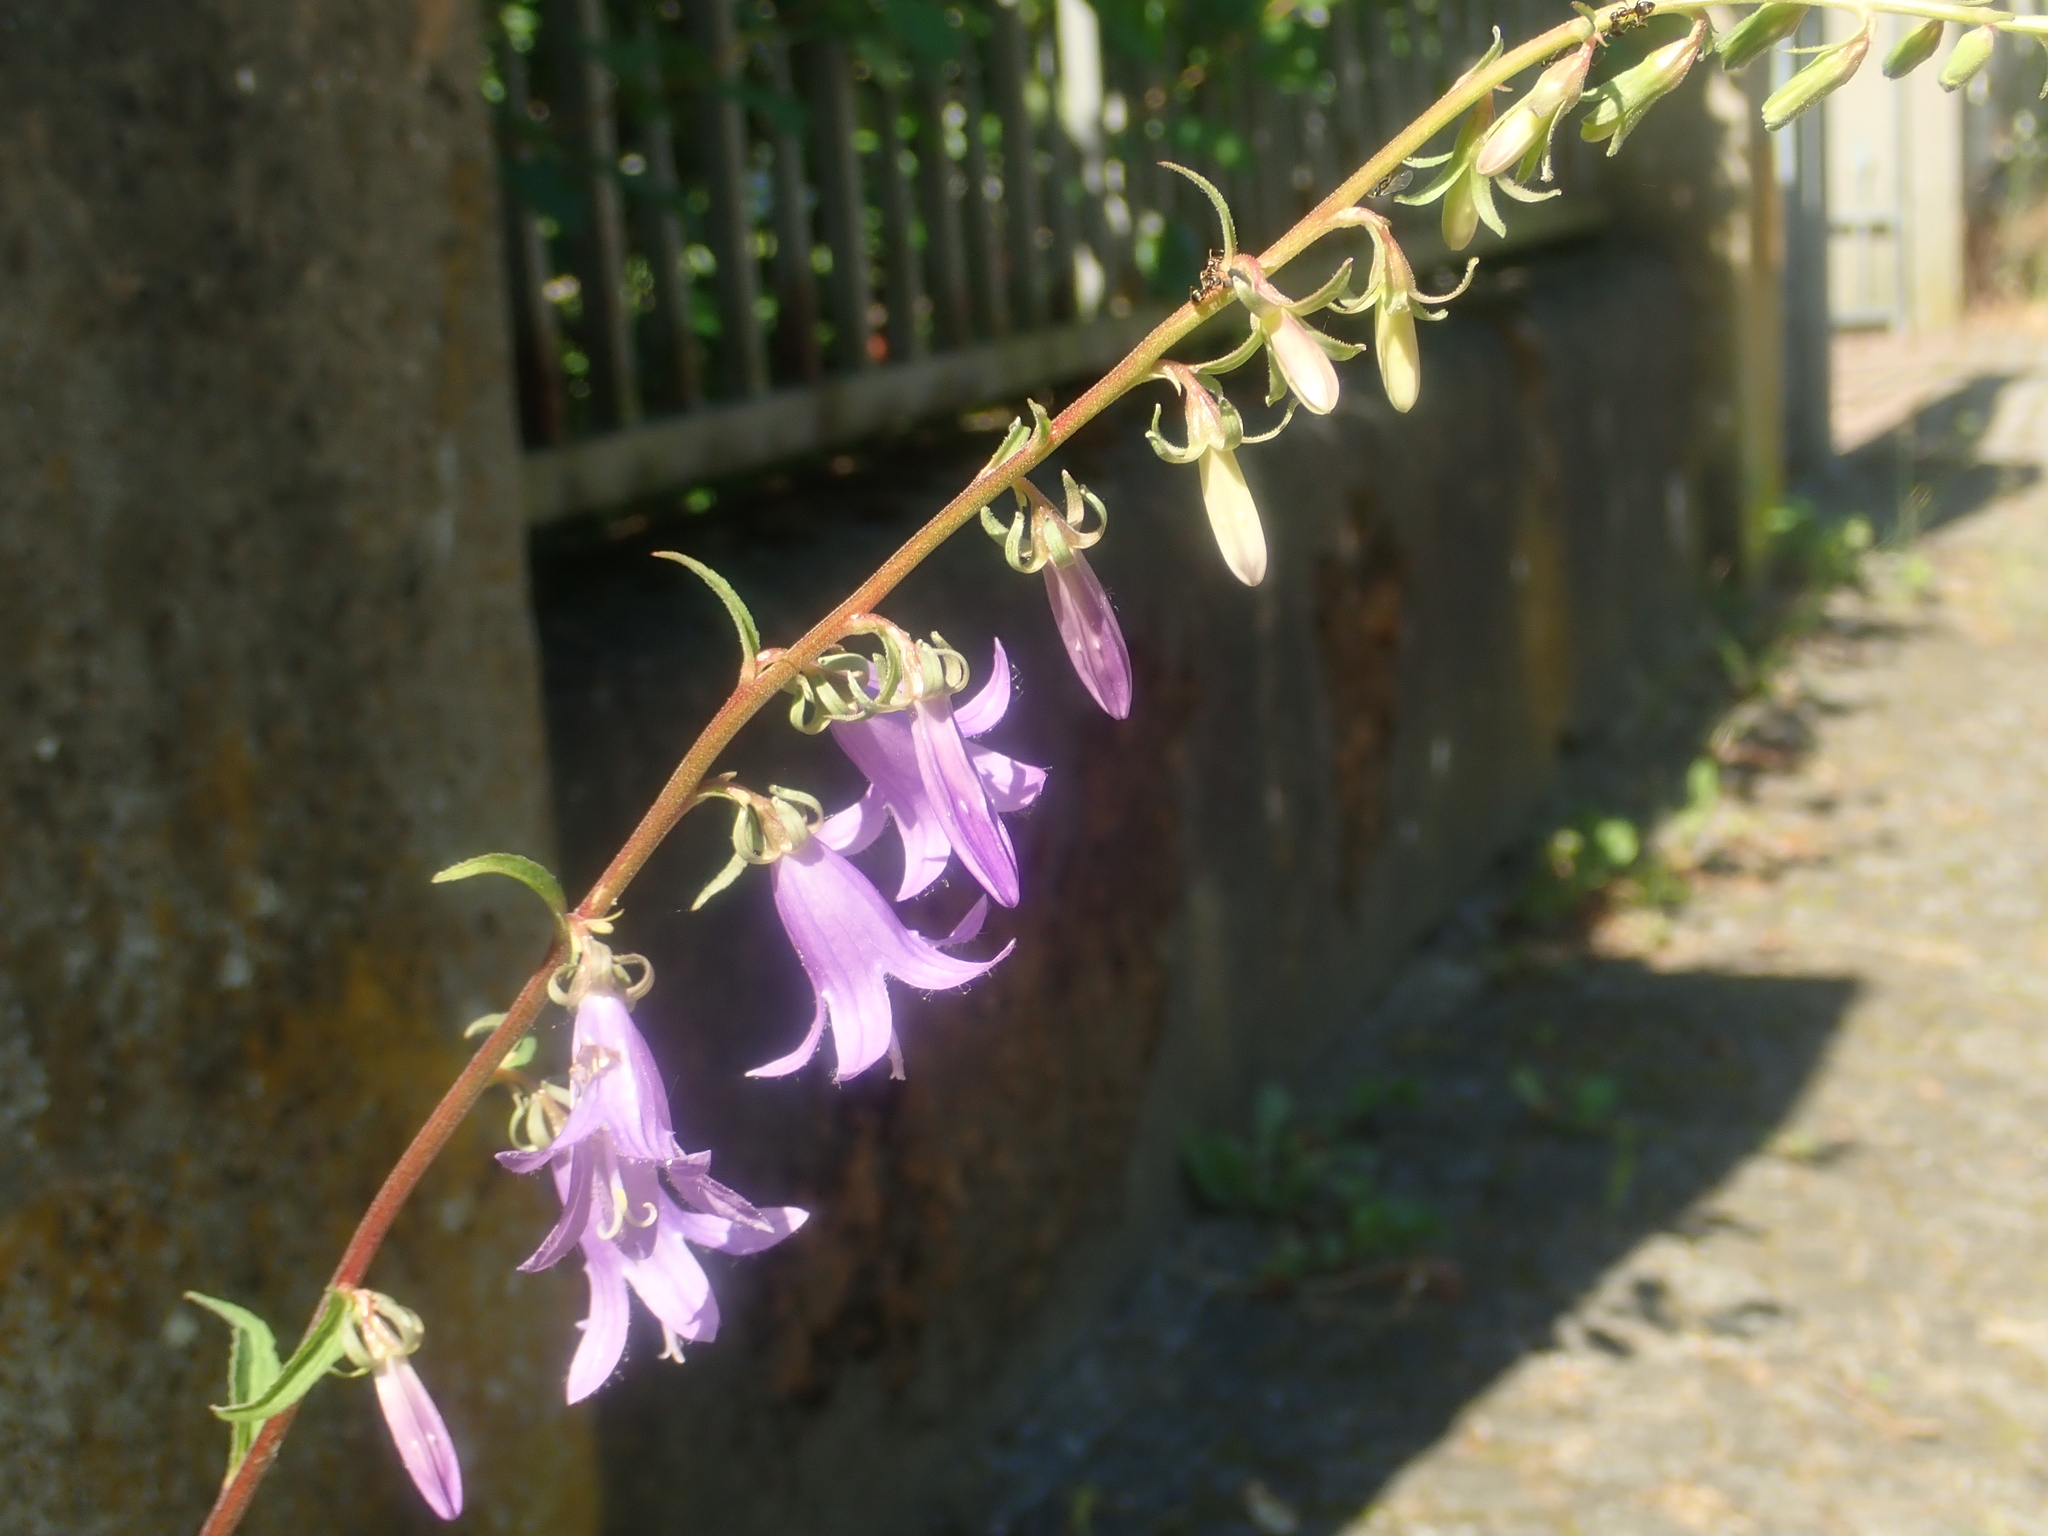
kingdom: Plantae
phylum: Tracheophyta
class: Magnoliopsida
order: Asterales
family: Campanulaceae
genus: Campanula
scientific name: Campanula rapunculoides
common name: Creeping bellflower
